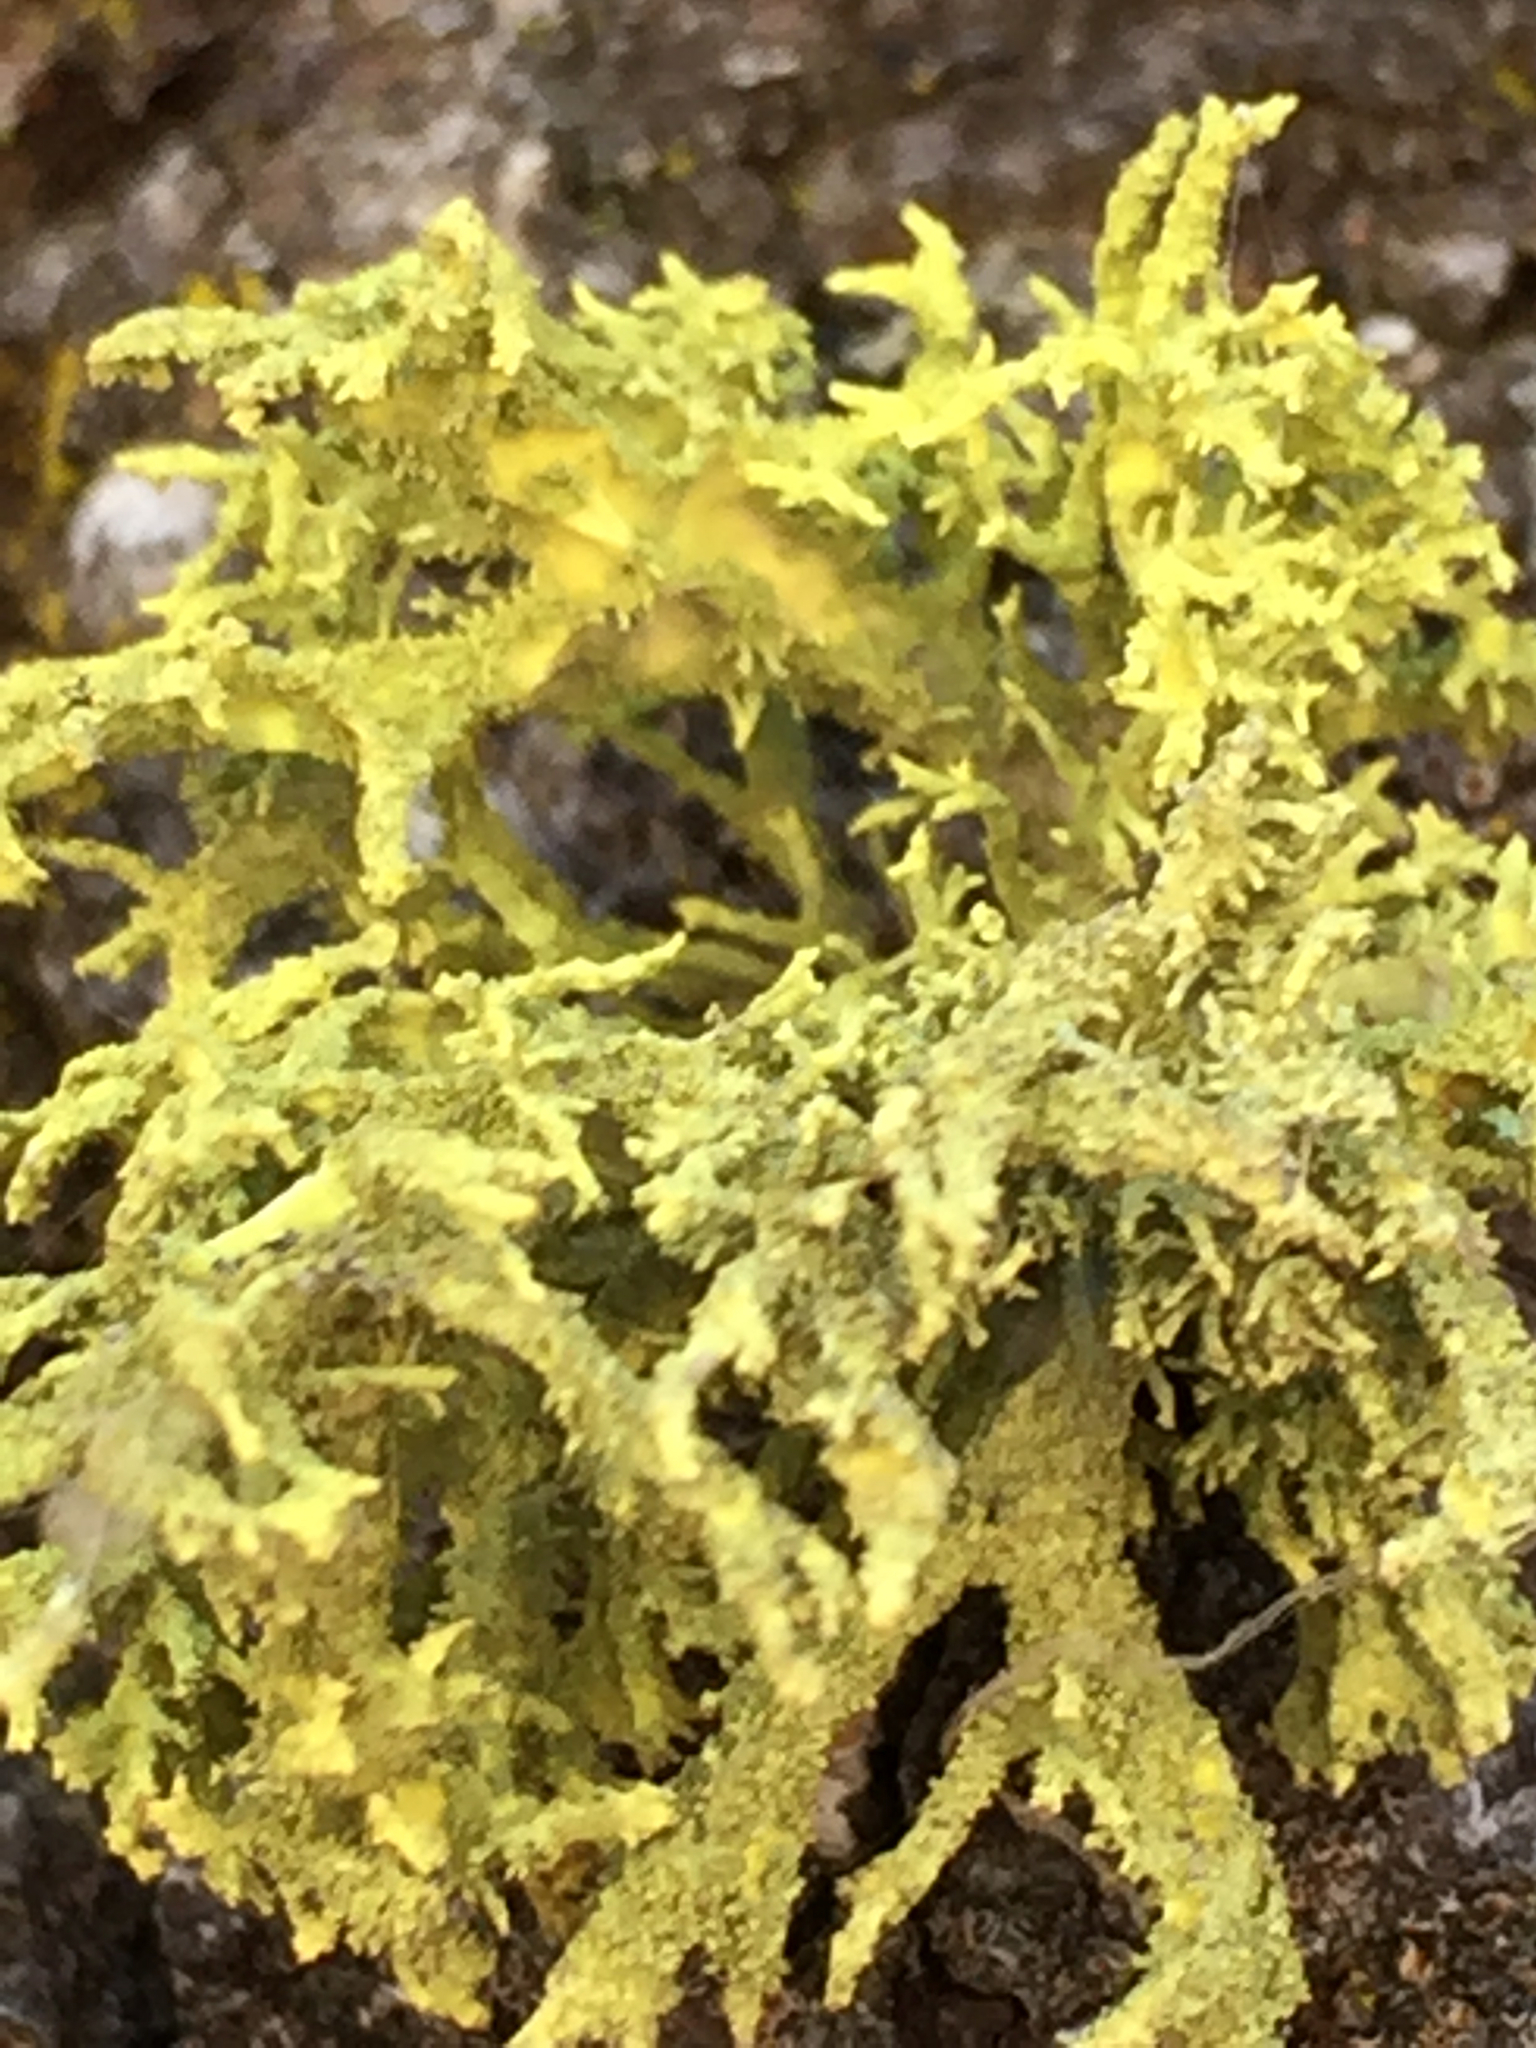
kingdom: Fungi
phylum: Ascomycota
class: Lecanoromycetes
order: Lecanorales
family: Parmeliaceae
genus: Letharia
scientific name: Letharia vulpina
